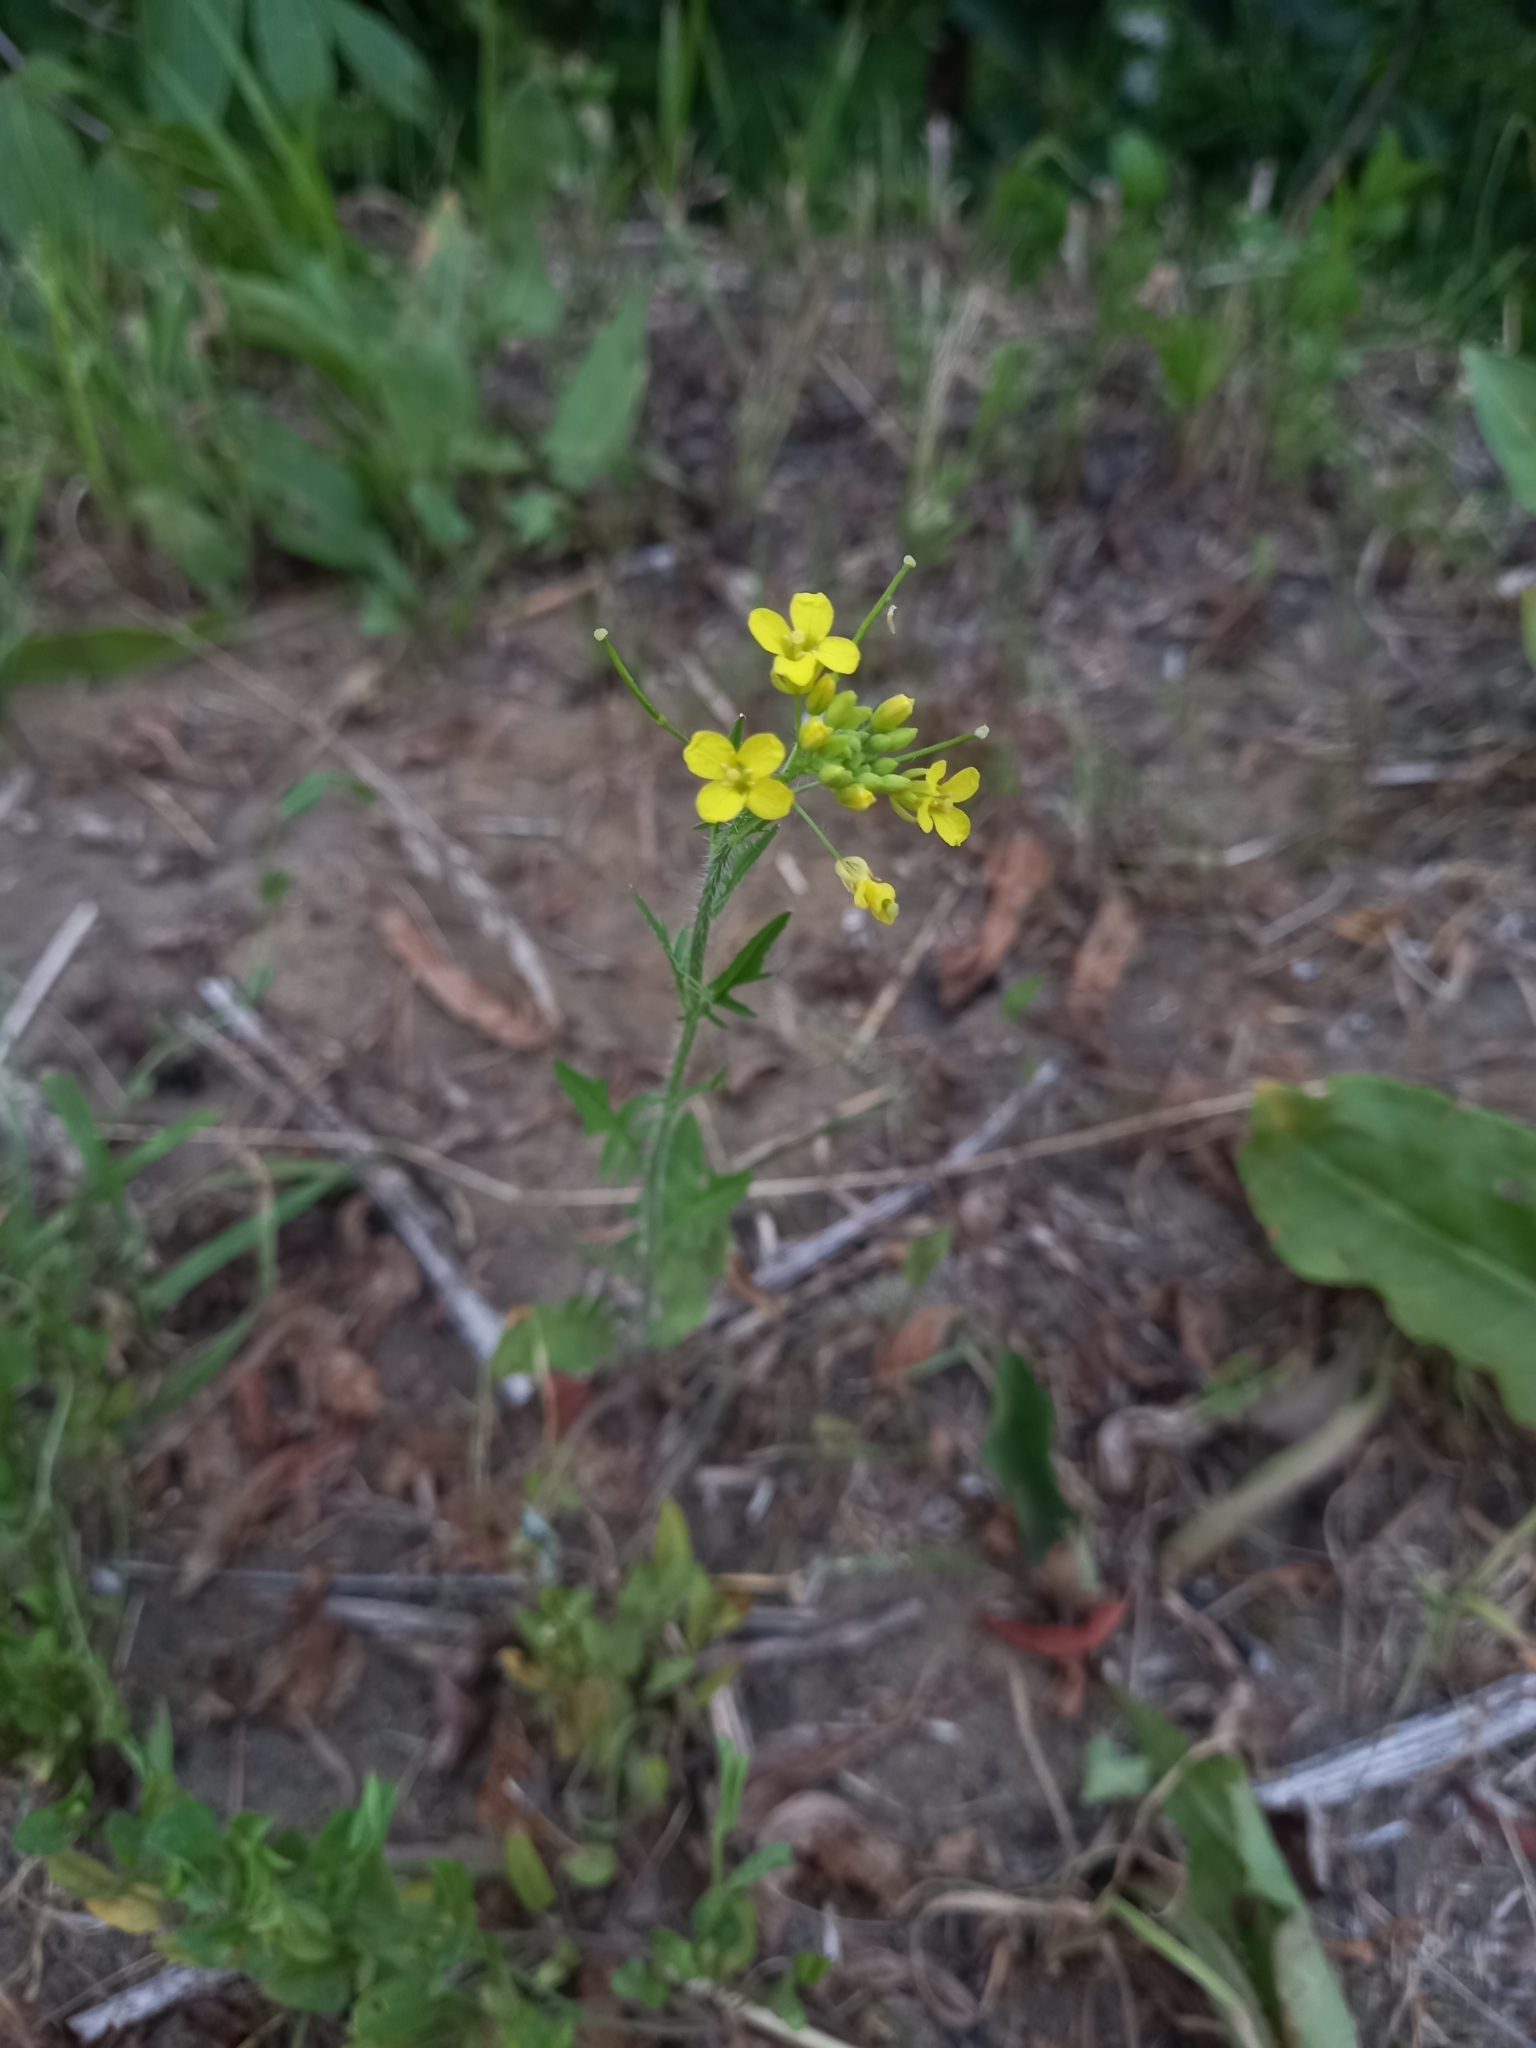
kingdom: Plantae
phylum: Tracheophyta
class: Magnoliopsida
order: Brassicales
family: Brassicaceae
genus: Sisymbrium
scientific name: Sisymbrium loeselii
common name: False london-rocket
